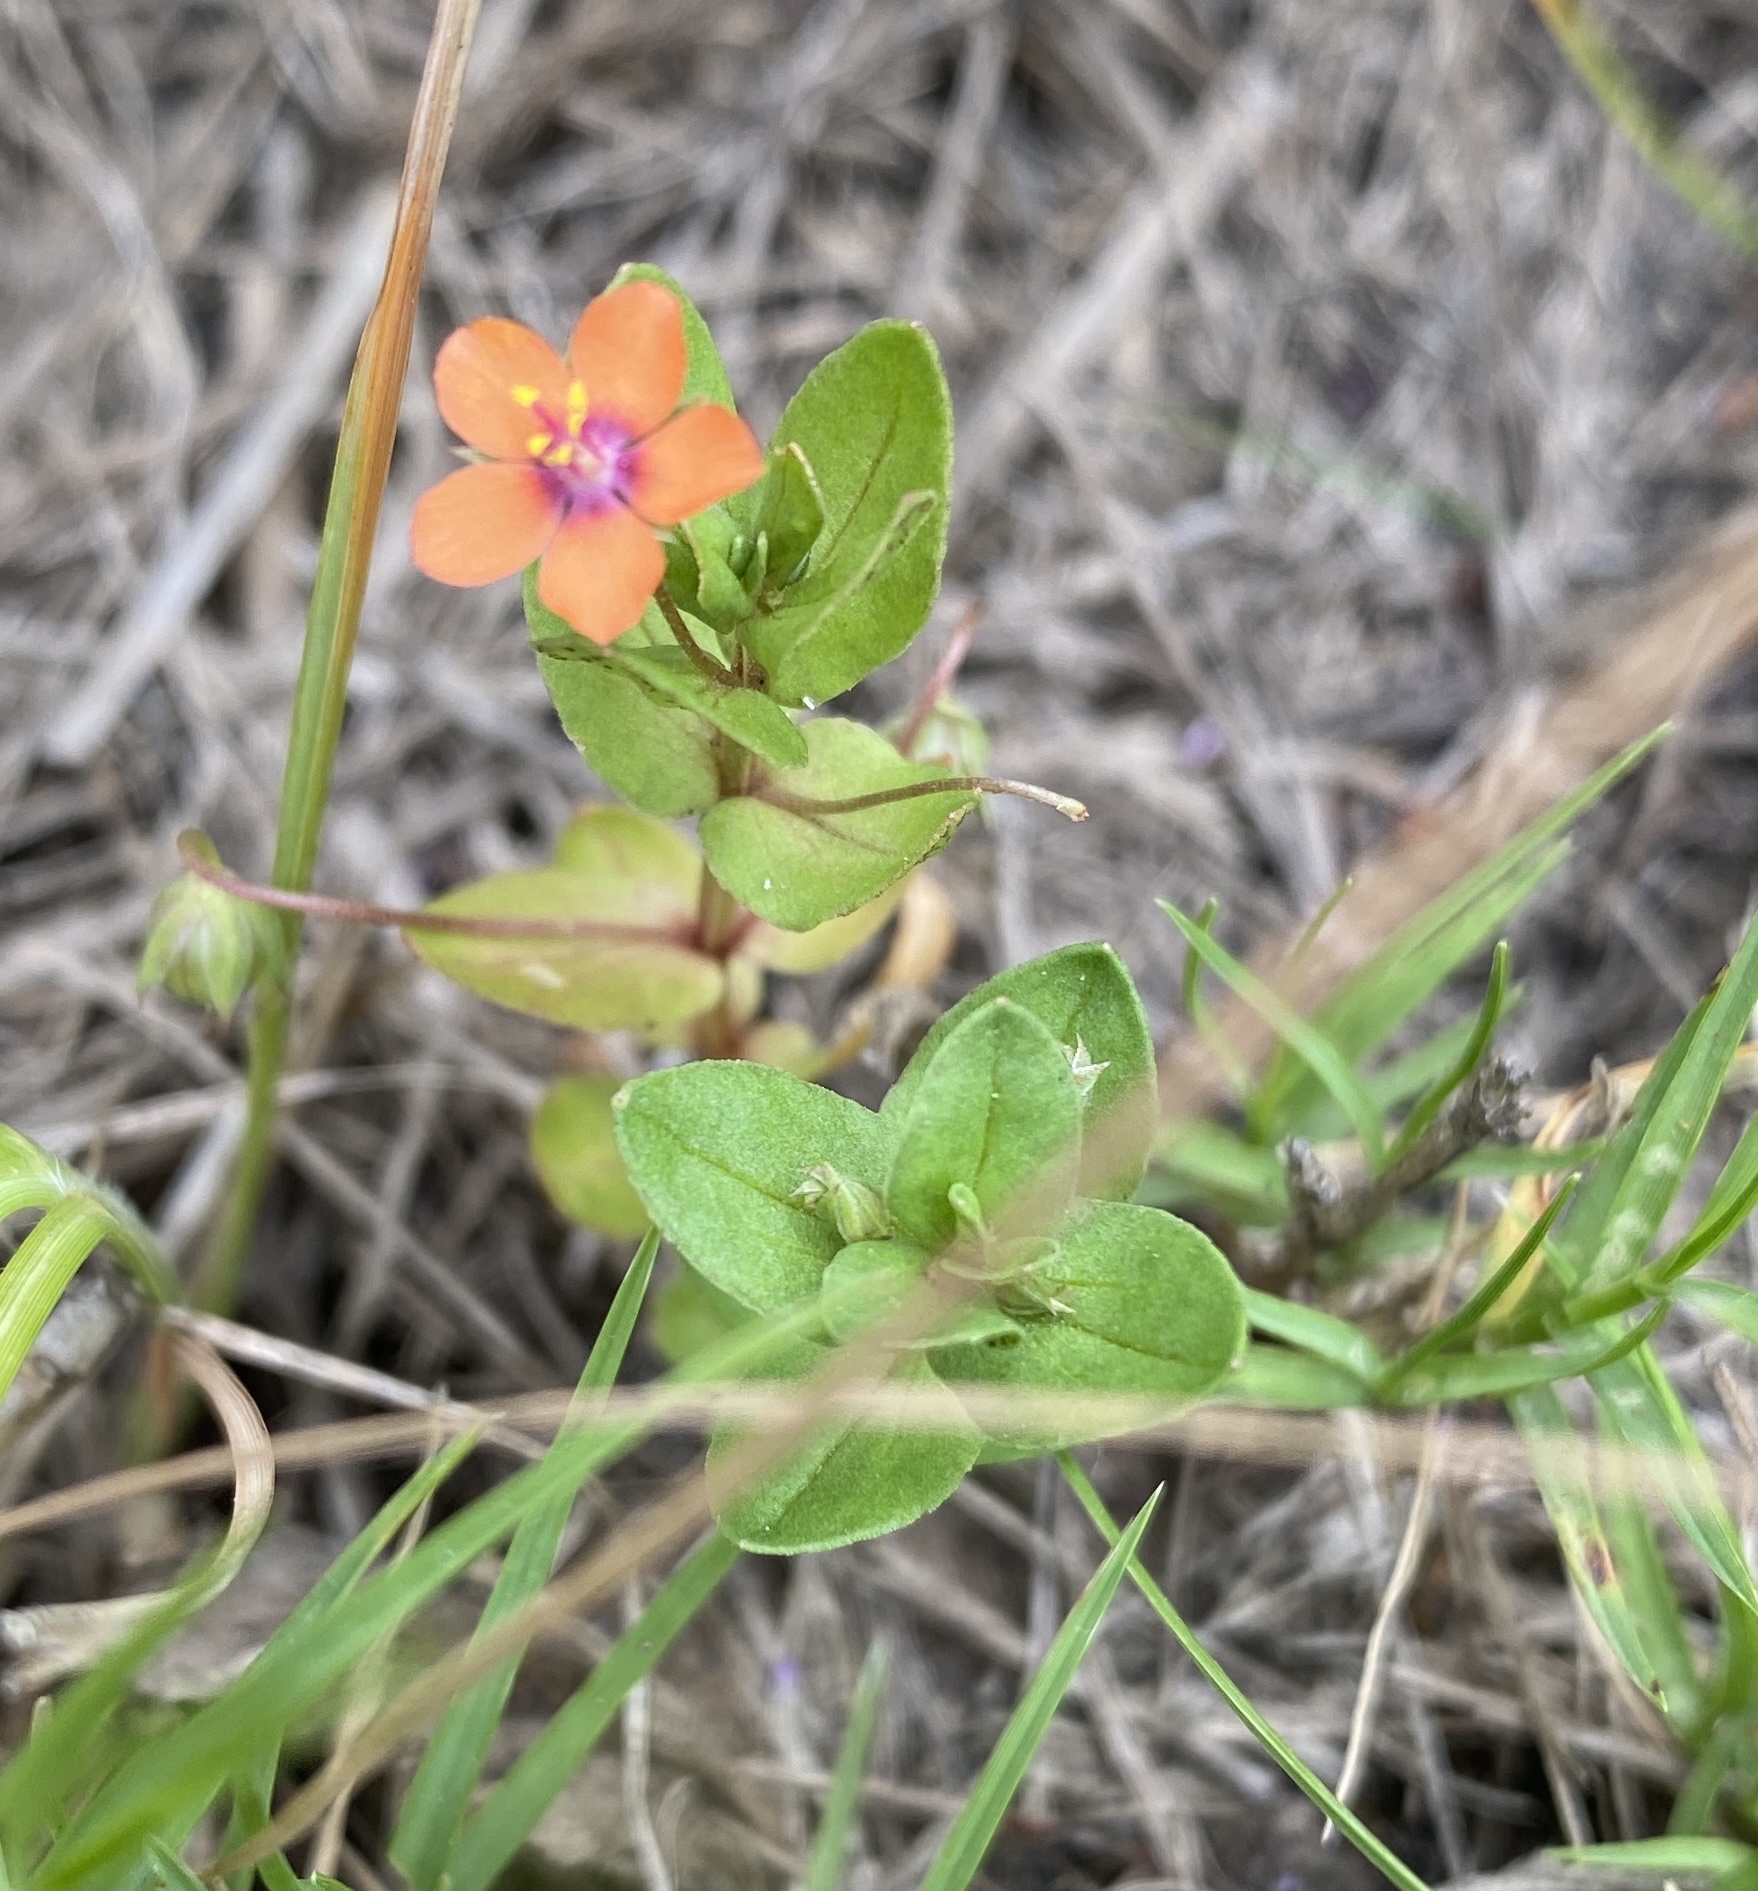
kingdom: Plantae
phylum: Tracheophyta
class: Magnoliopsida
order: Ericales
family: Primulaceae
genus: Lysimachia
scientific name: Lysimachia arvensis
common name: Scarlet pimpernel
